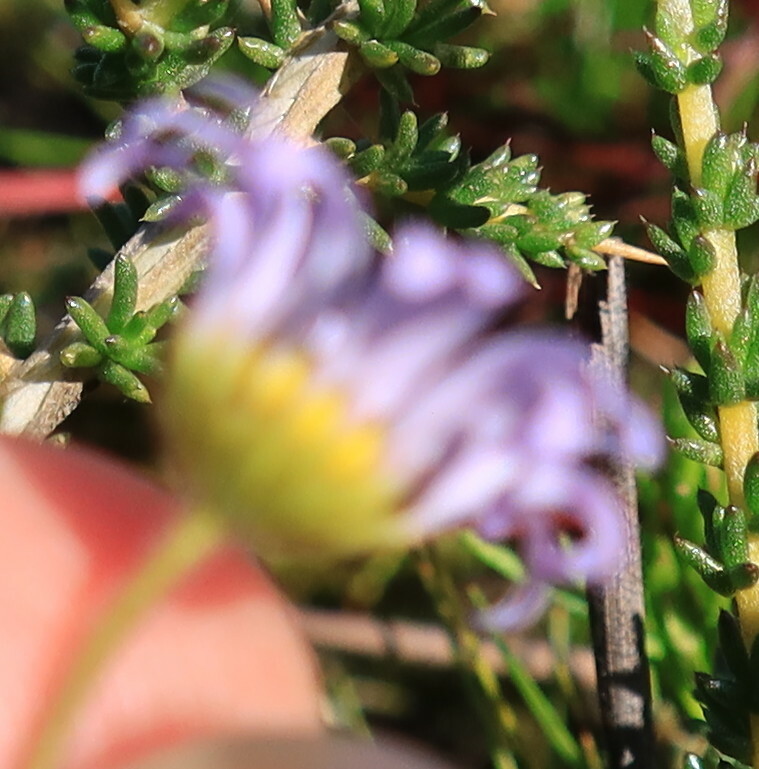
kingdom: Plantae
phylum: Tracheophyta
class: Magnoliopsida
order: Asterales
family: Asteraceae
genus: Felicia
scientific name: Felicia tenella
